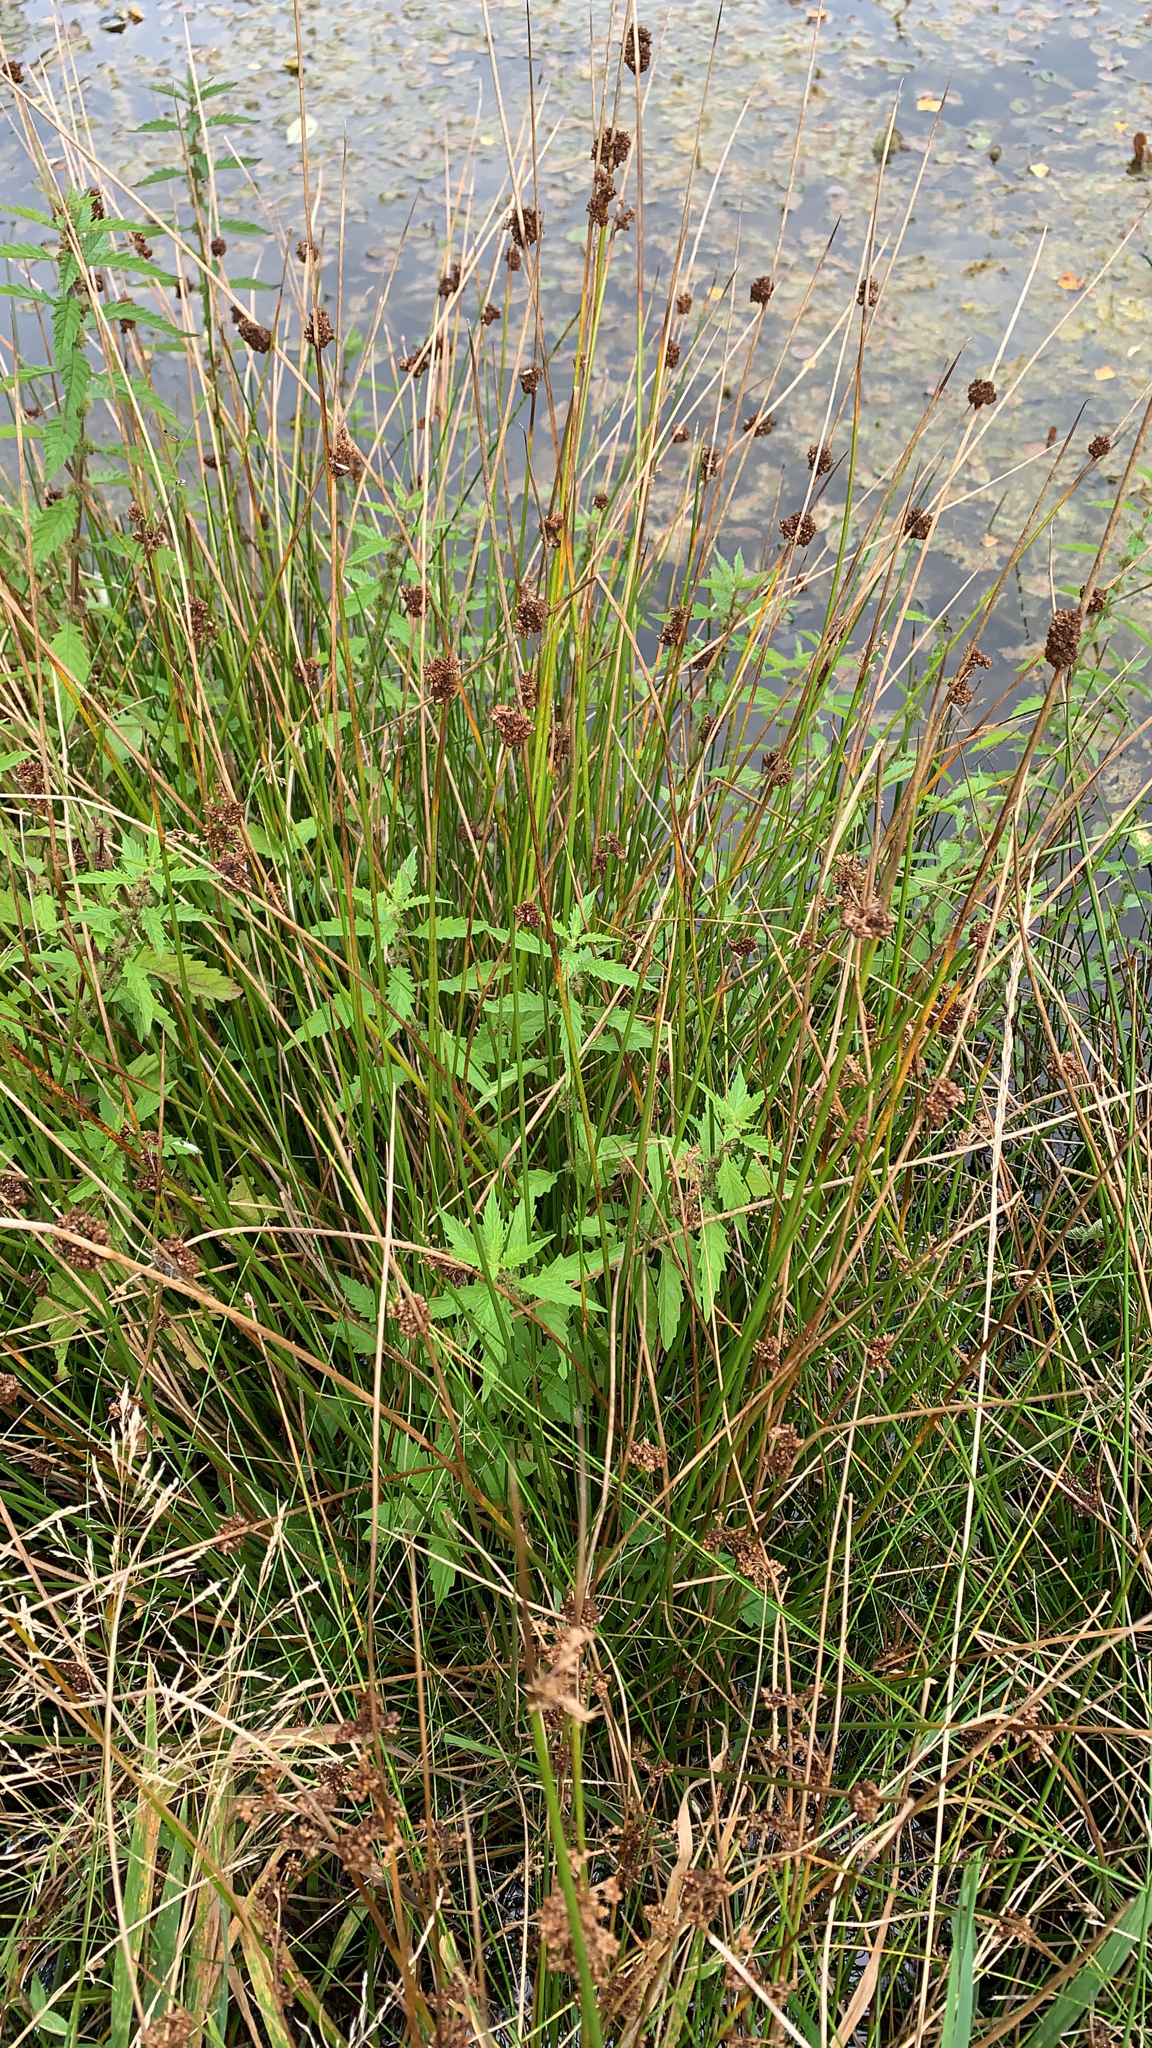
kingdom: Plantae
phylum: Tracheophyta
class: Liliopsida
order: Poales
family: Juncaceae
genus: Juncus
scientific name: Juncus effusus
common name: Soft rush
